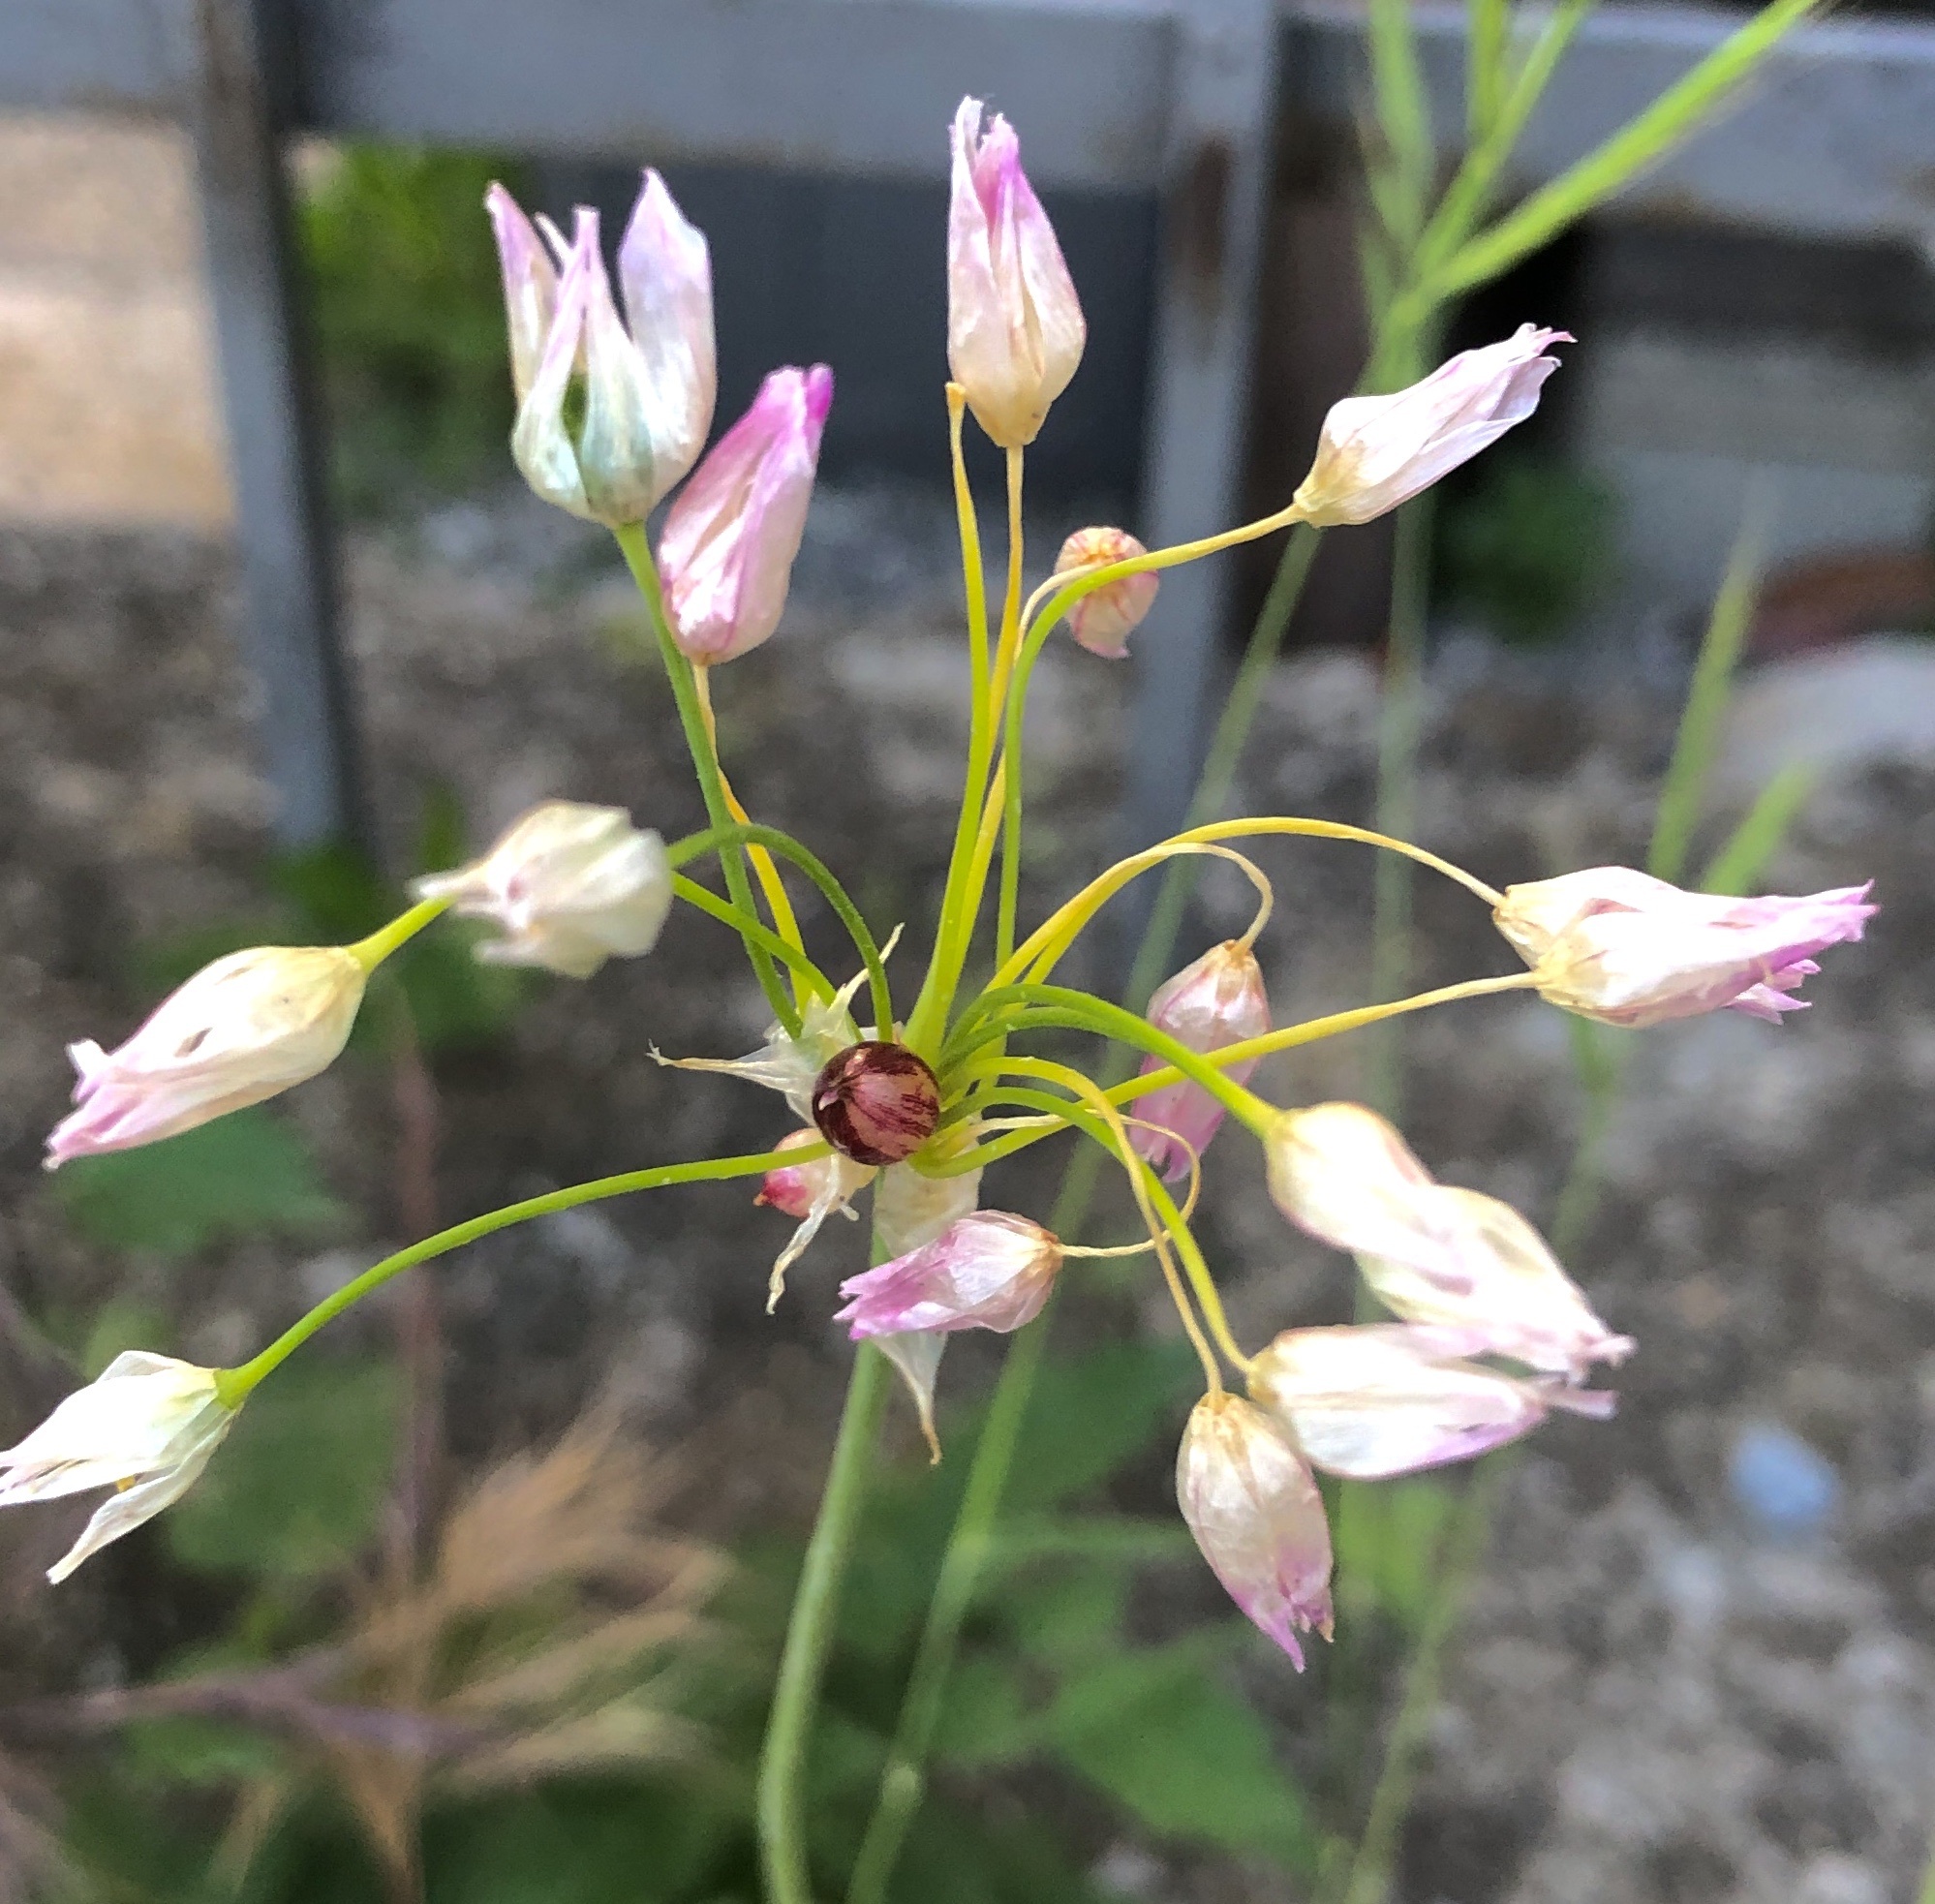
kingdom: Plantae
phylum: Tracheophyta
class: Liliopsida
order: Asparagales
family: Amaryllidaceae
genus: Allium
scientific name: Allium roseum
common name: Rosy garlic
